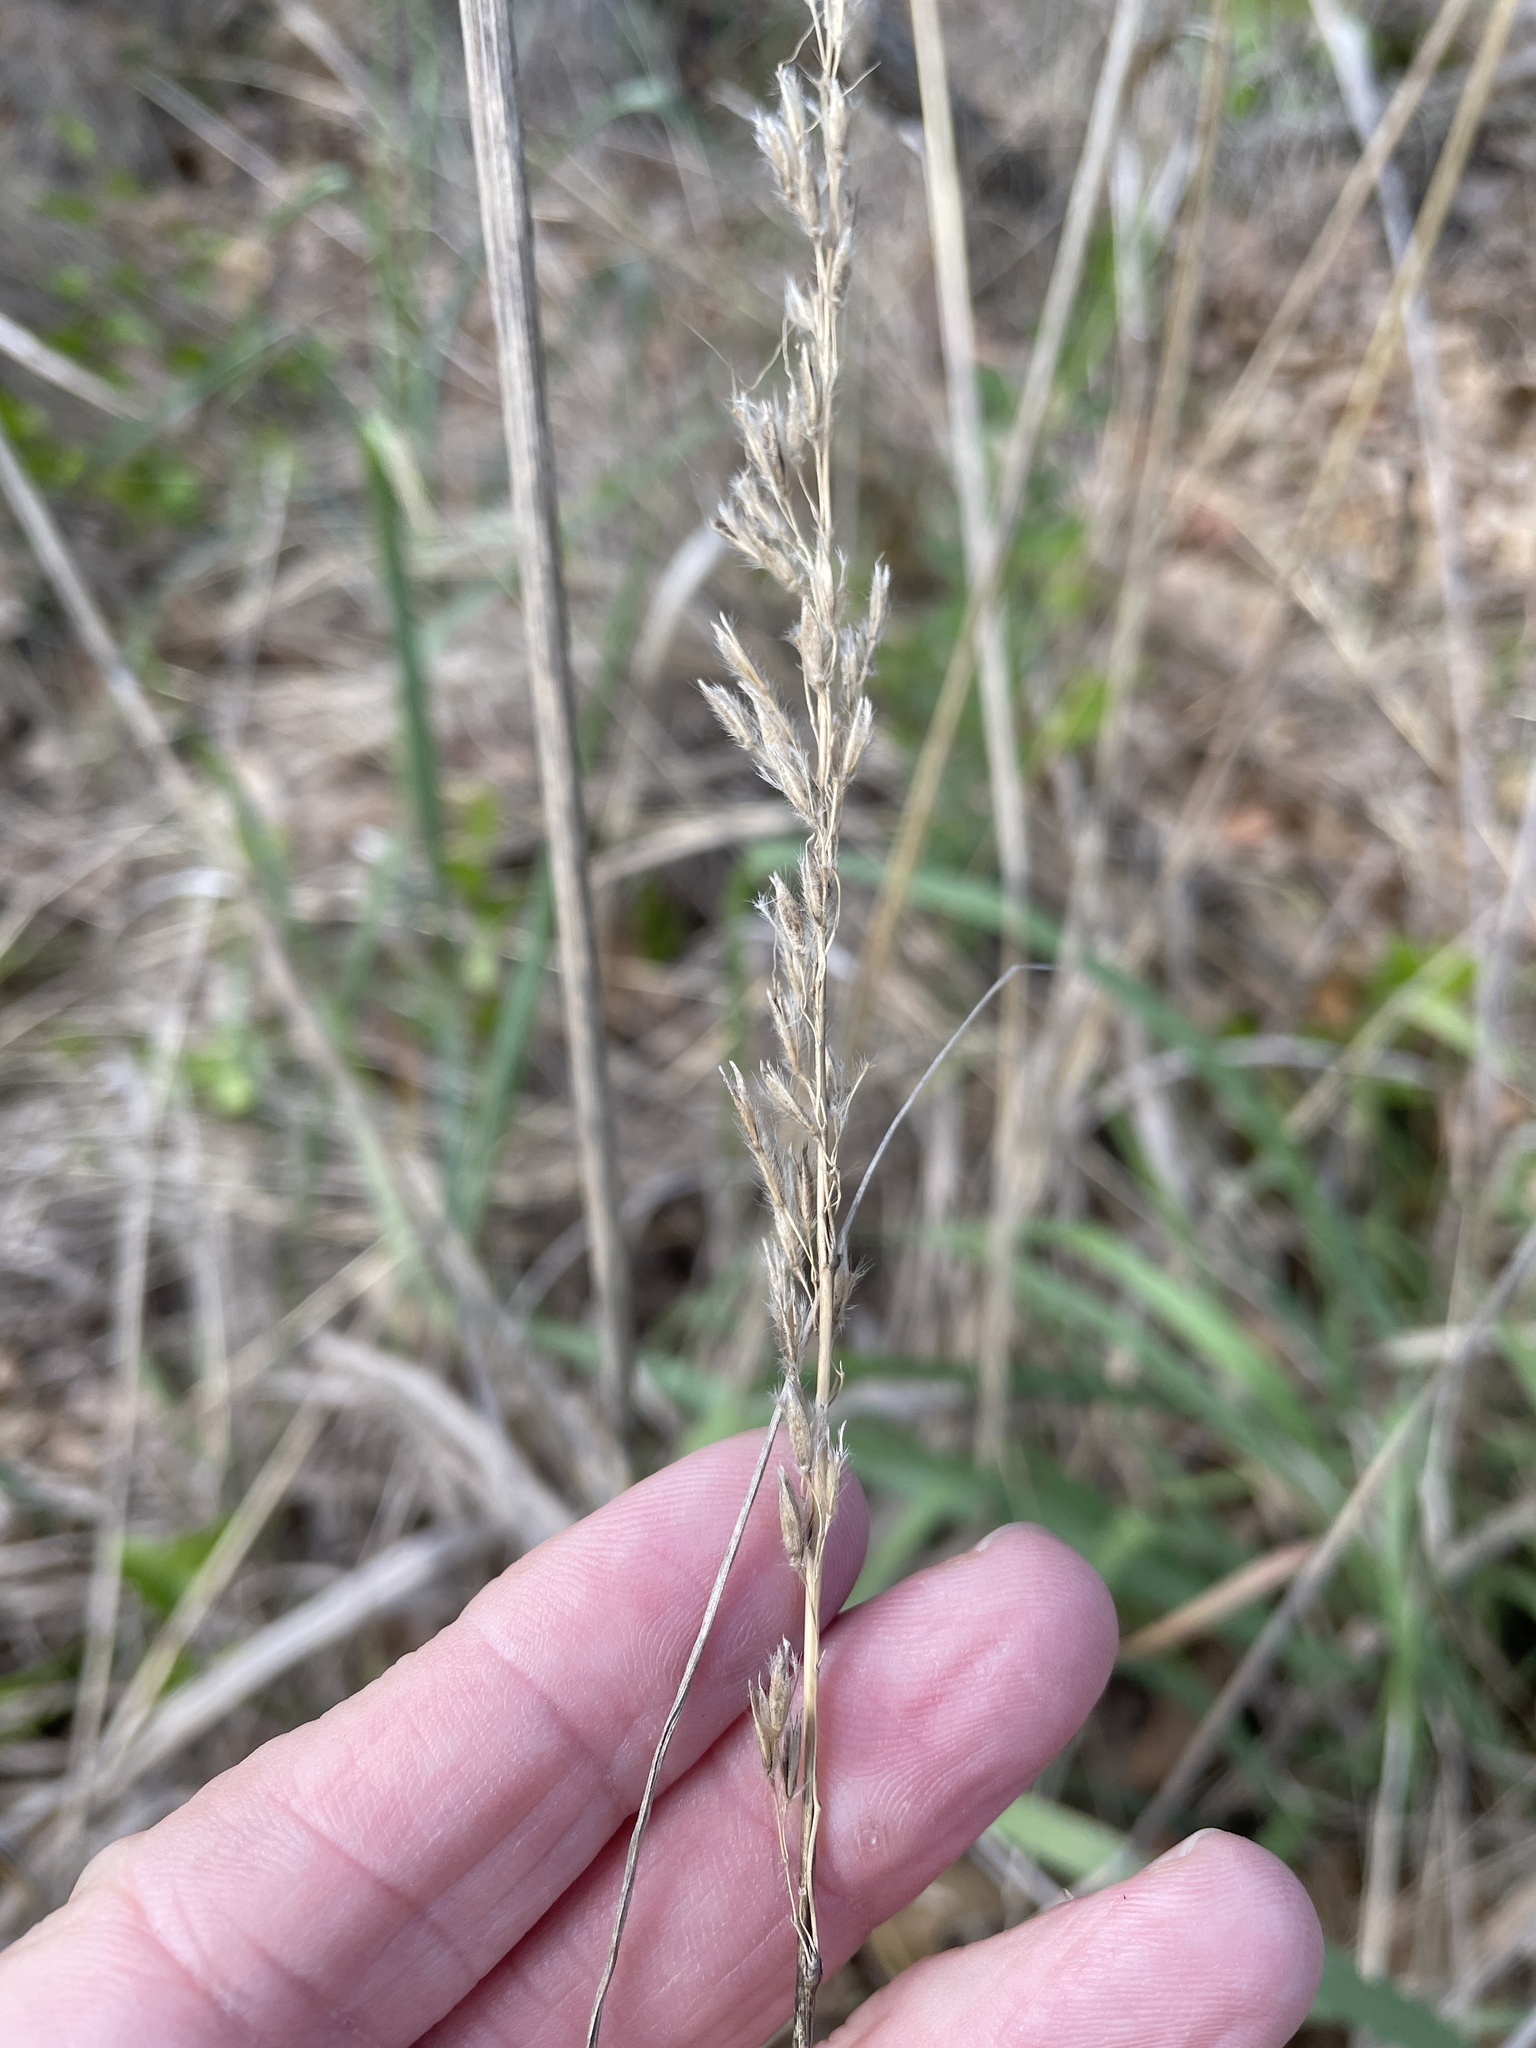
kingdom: Plantae
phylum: Tracheophyta
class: Liliopsida
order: Poales
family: Poaceae
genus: Sorghastrum
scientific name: Sorghastrum nutans
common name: Indian grass
